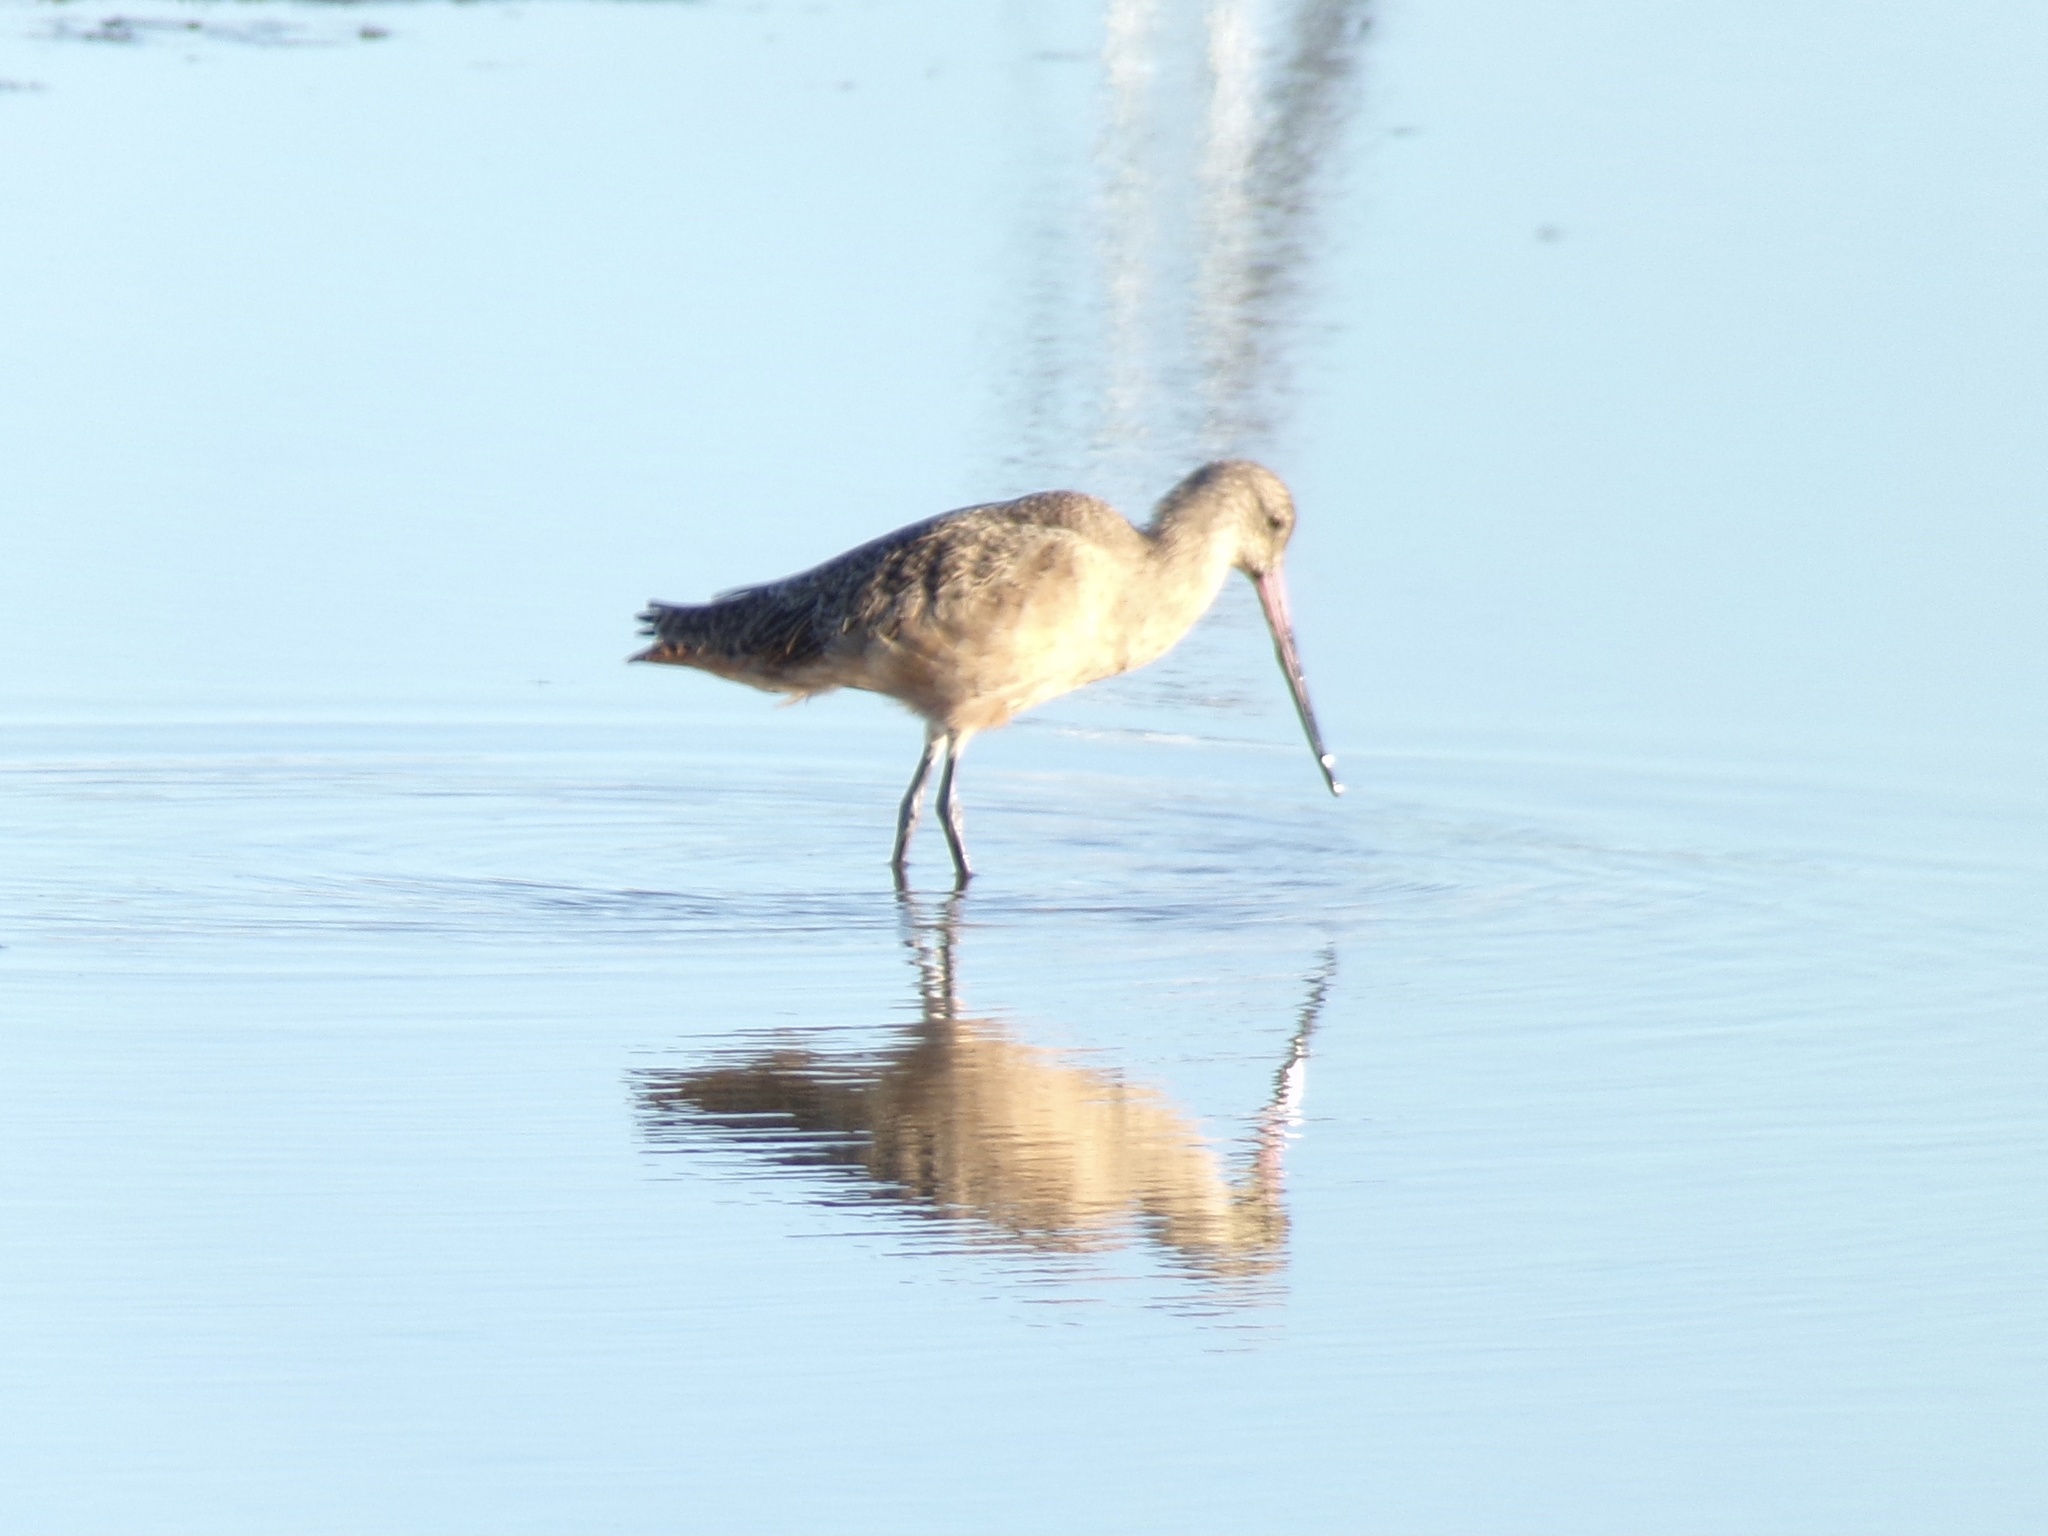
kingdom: Animalia
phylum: Chordata
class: Aves
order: Charadriiformes
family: Scolopacidae
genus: Limosa
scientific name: Limosa fedoa
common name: Marbled godwit
